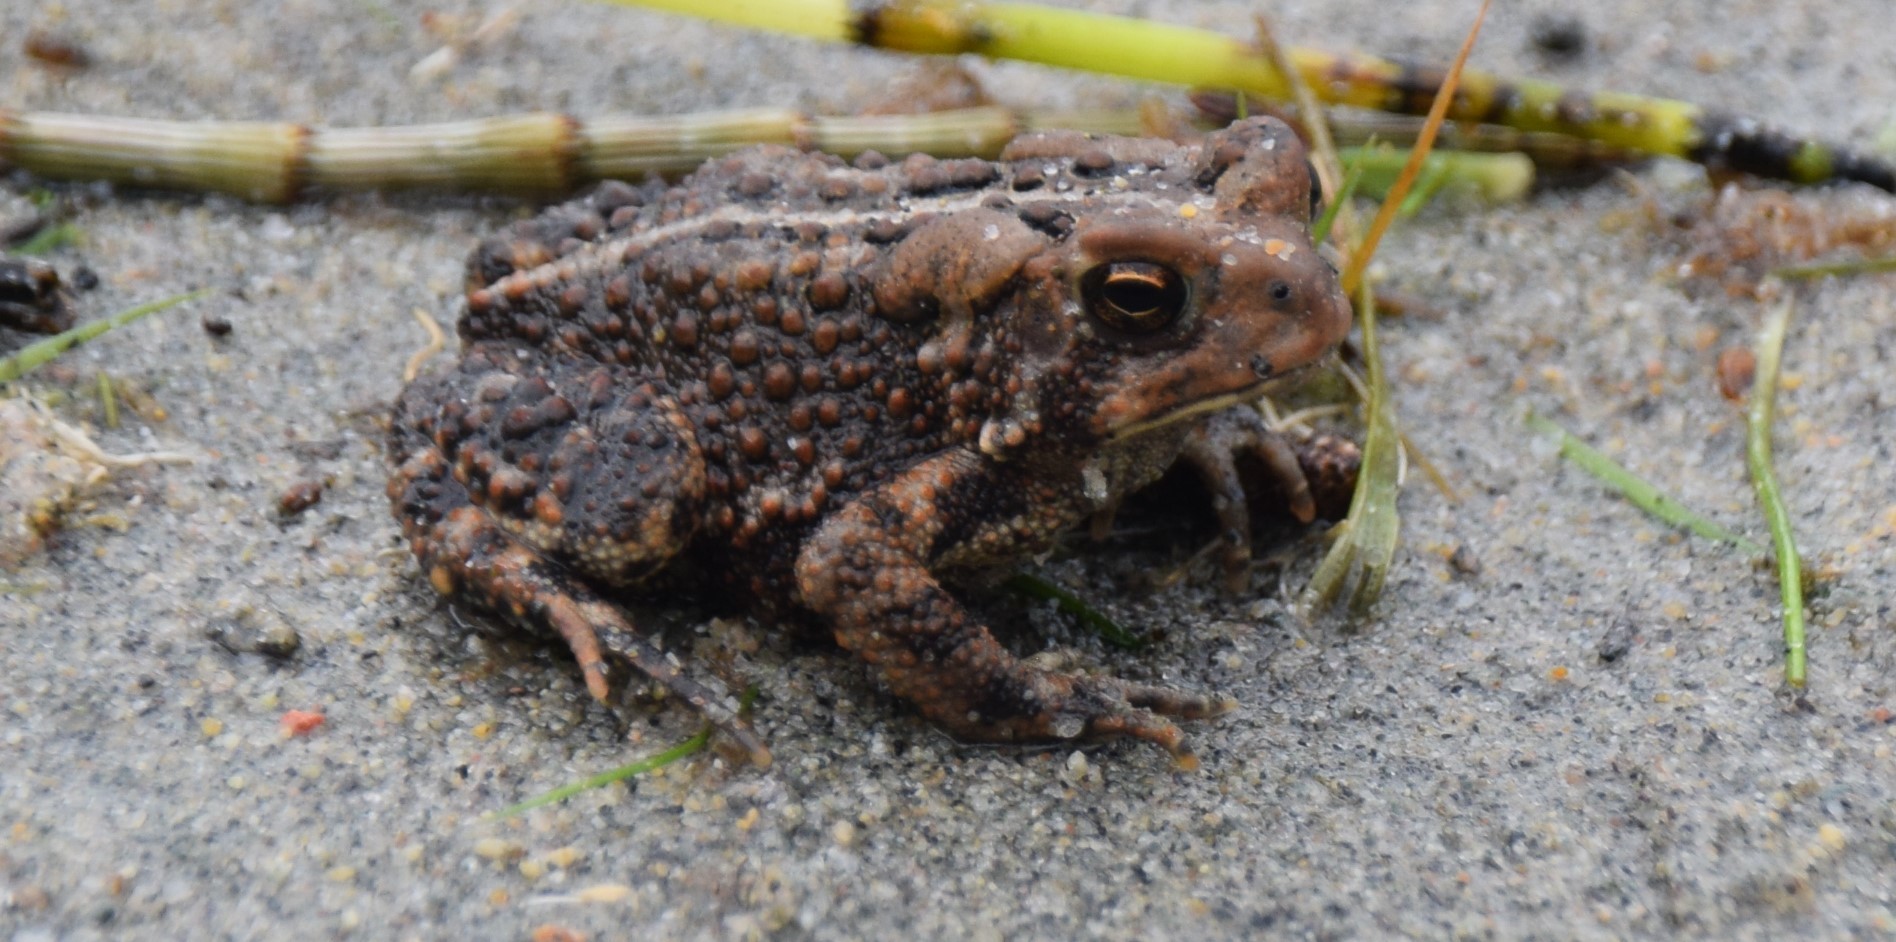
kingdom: Animalia
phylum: Chordata
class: Amphibia
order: Anura
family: Bufonidae
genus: Anaxyrus
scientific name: Anaxyrus americanus
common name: American toad
